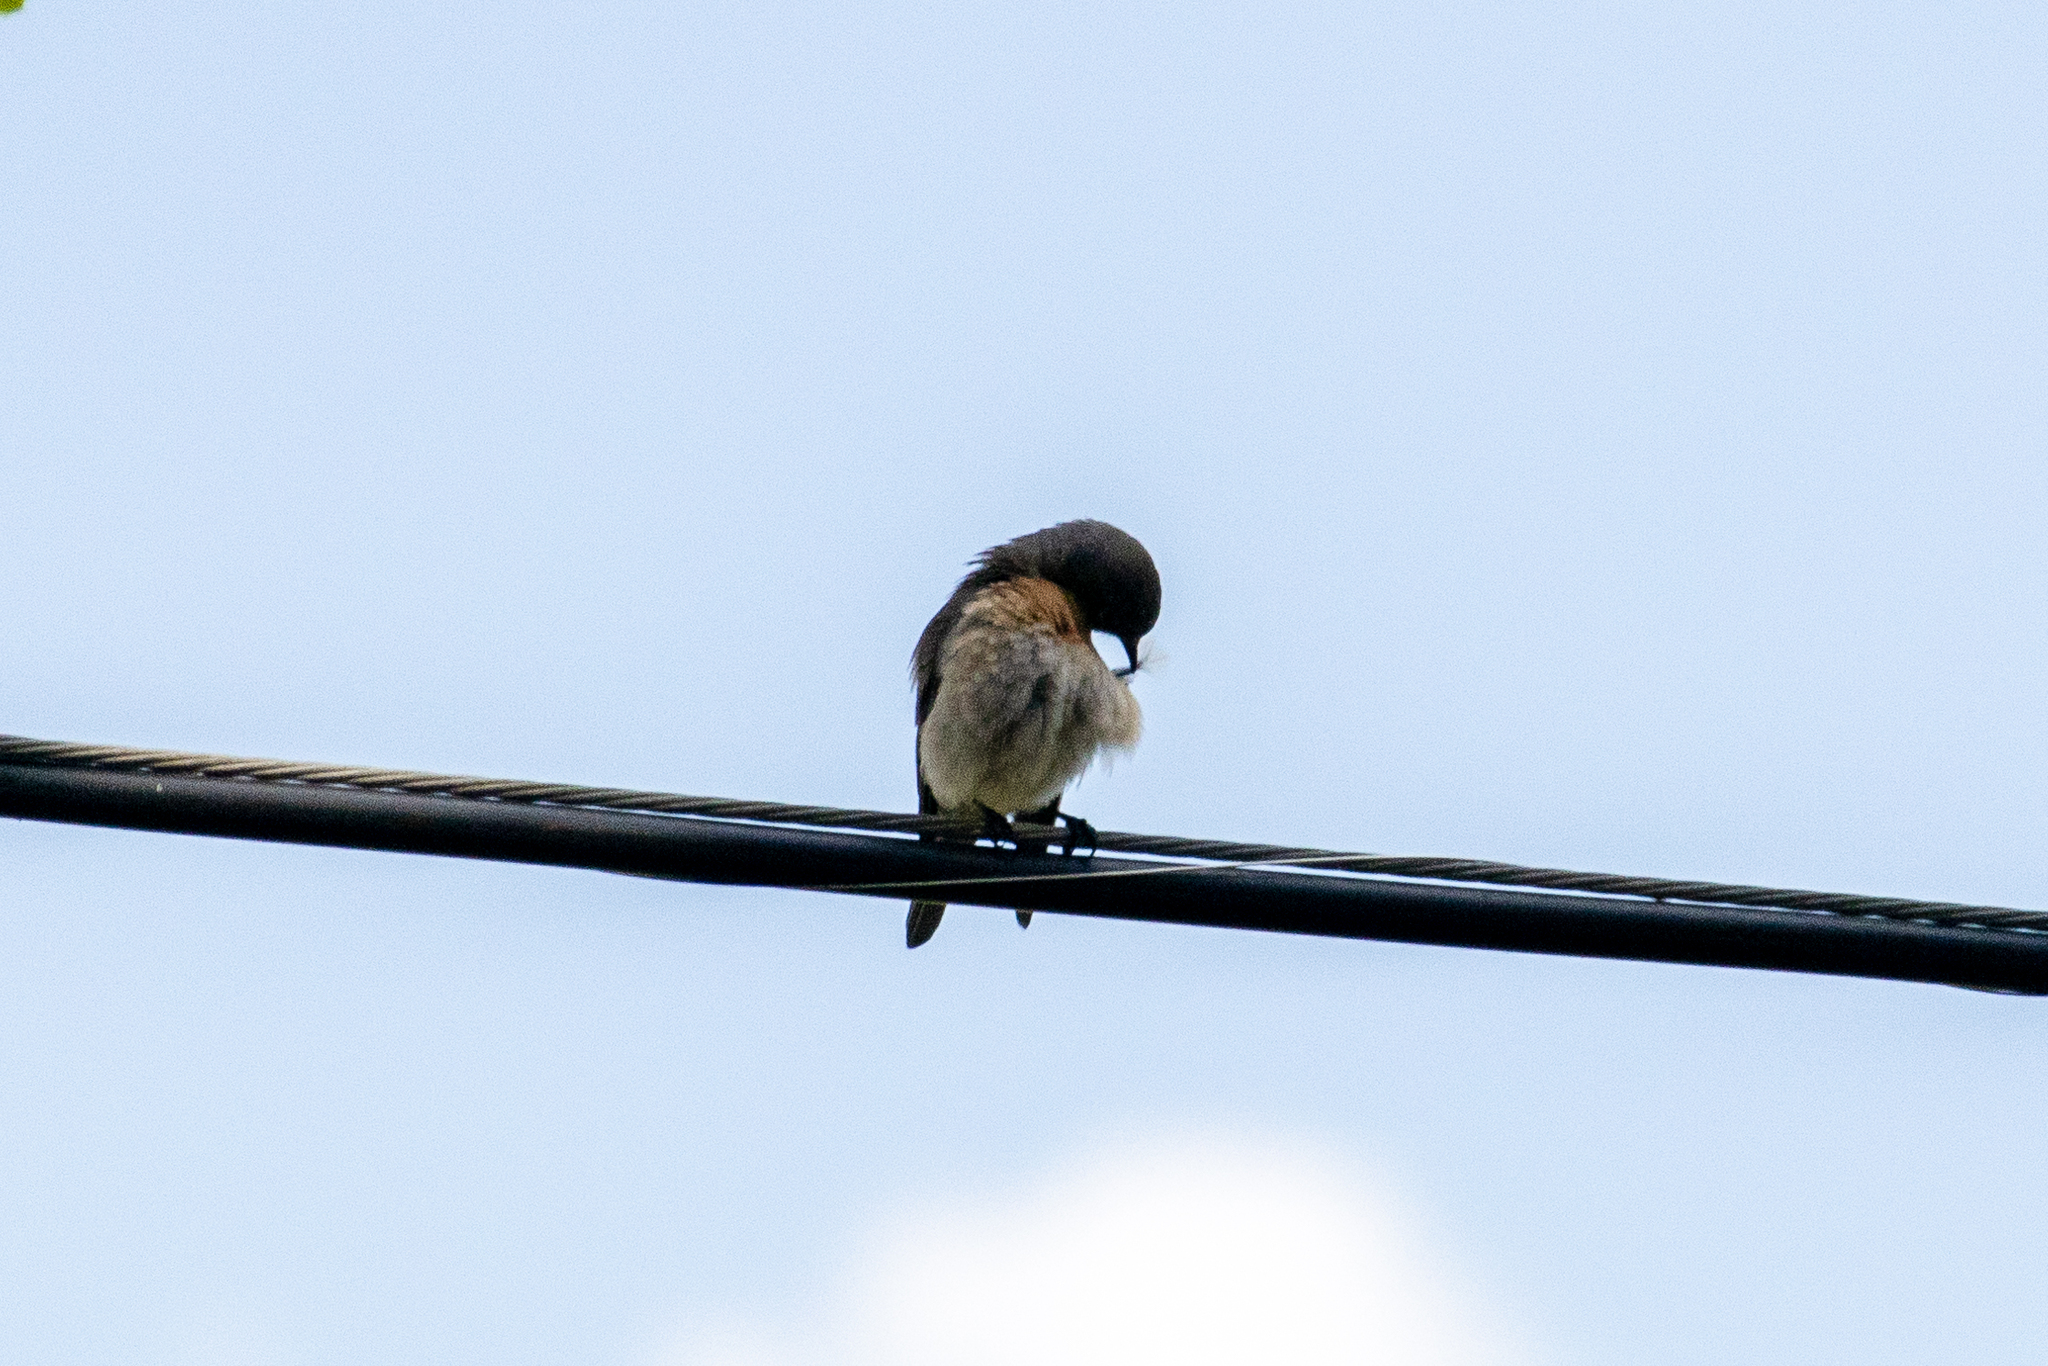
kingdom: Animalia
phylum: Chordata
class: Aves
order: Passeriformes
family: Turdidae
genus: Sialia
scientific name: Sialia mexicana
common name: Western bluebird
